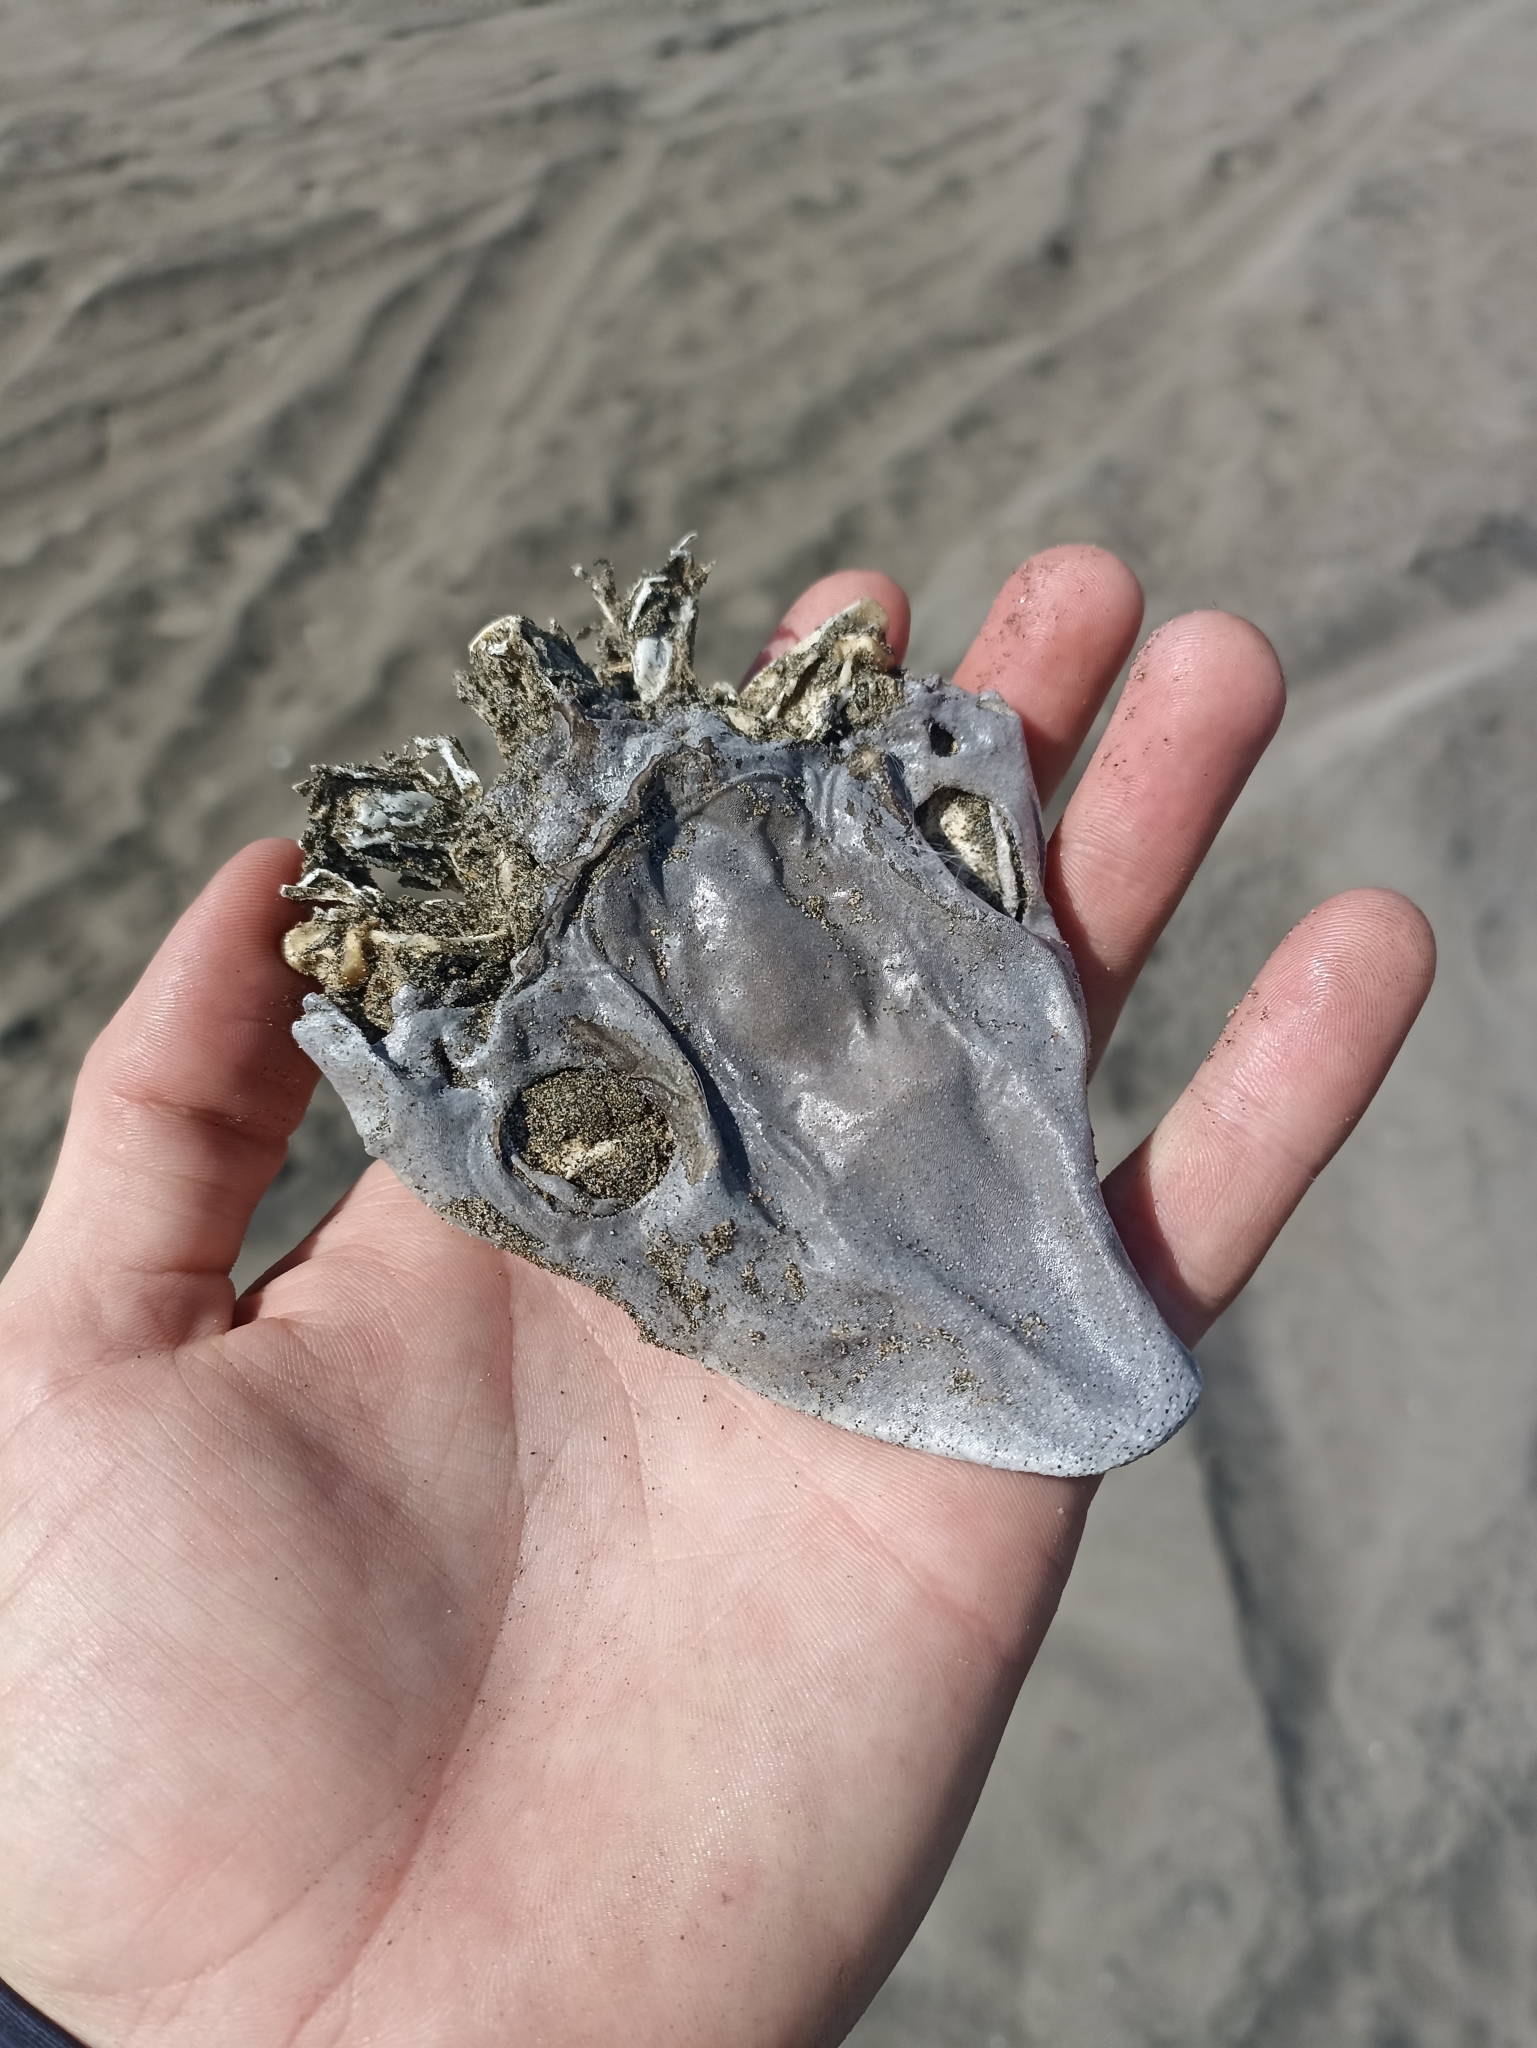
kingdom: Animalia
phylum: Chordata
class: Elasmobranchii
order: Carcharhiniformes
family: Triakidae
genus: Mustelus
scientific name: Mustelus lenticulatus
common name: Gummy shark
